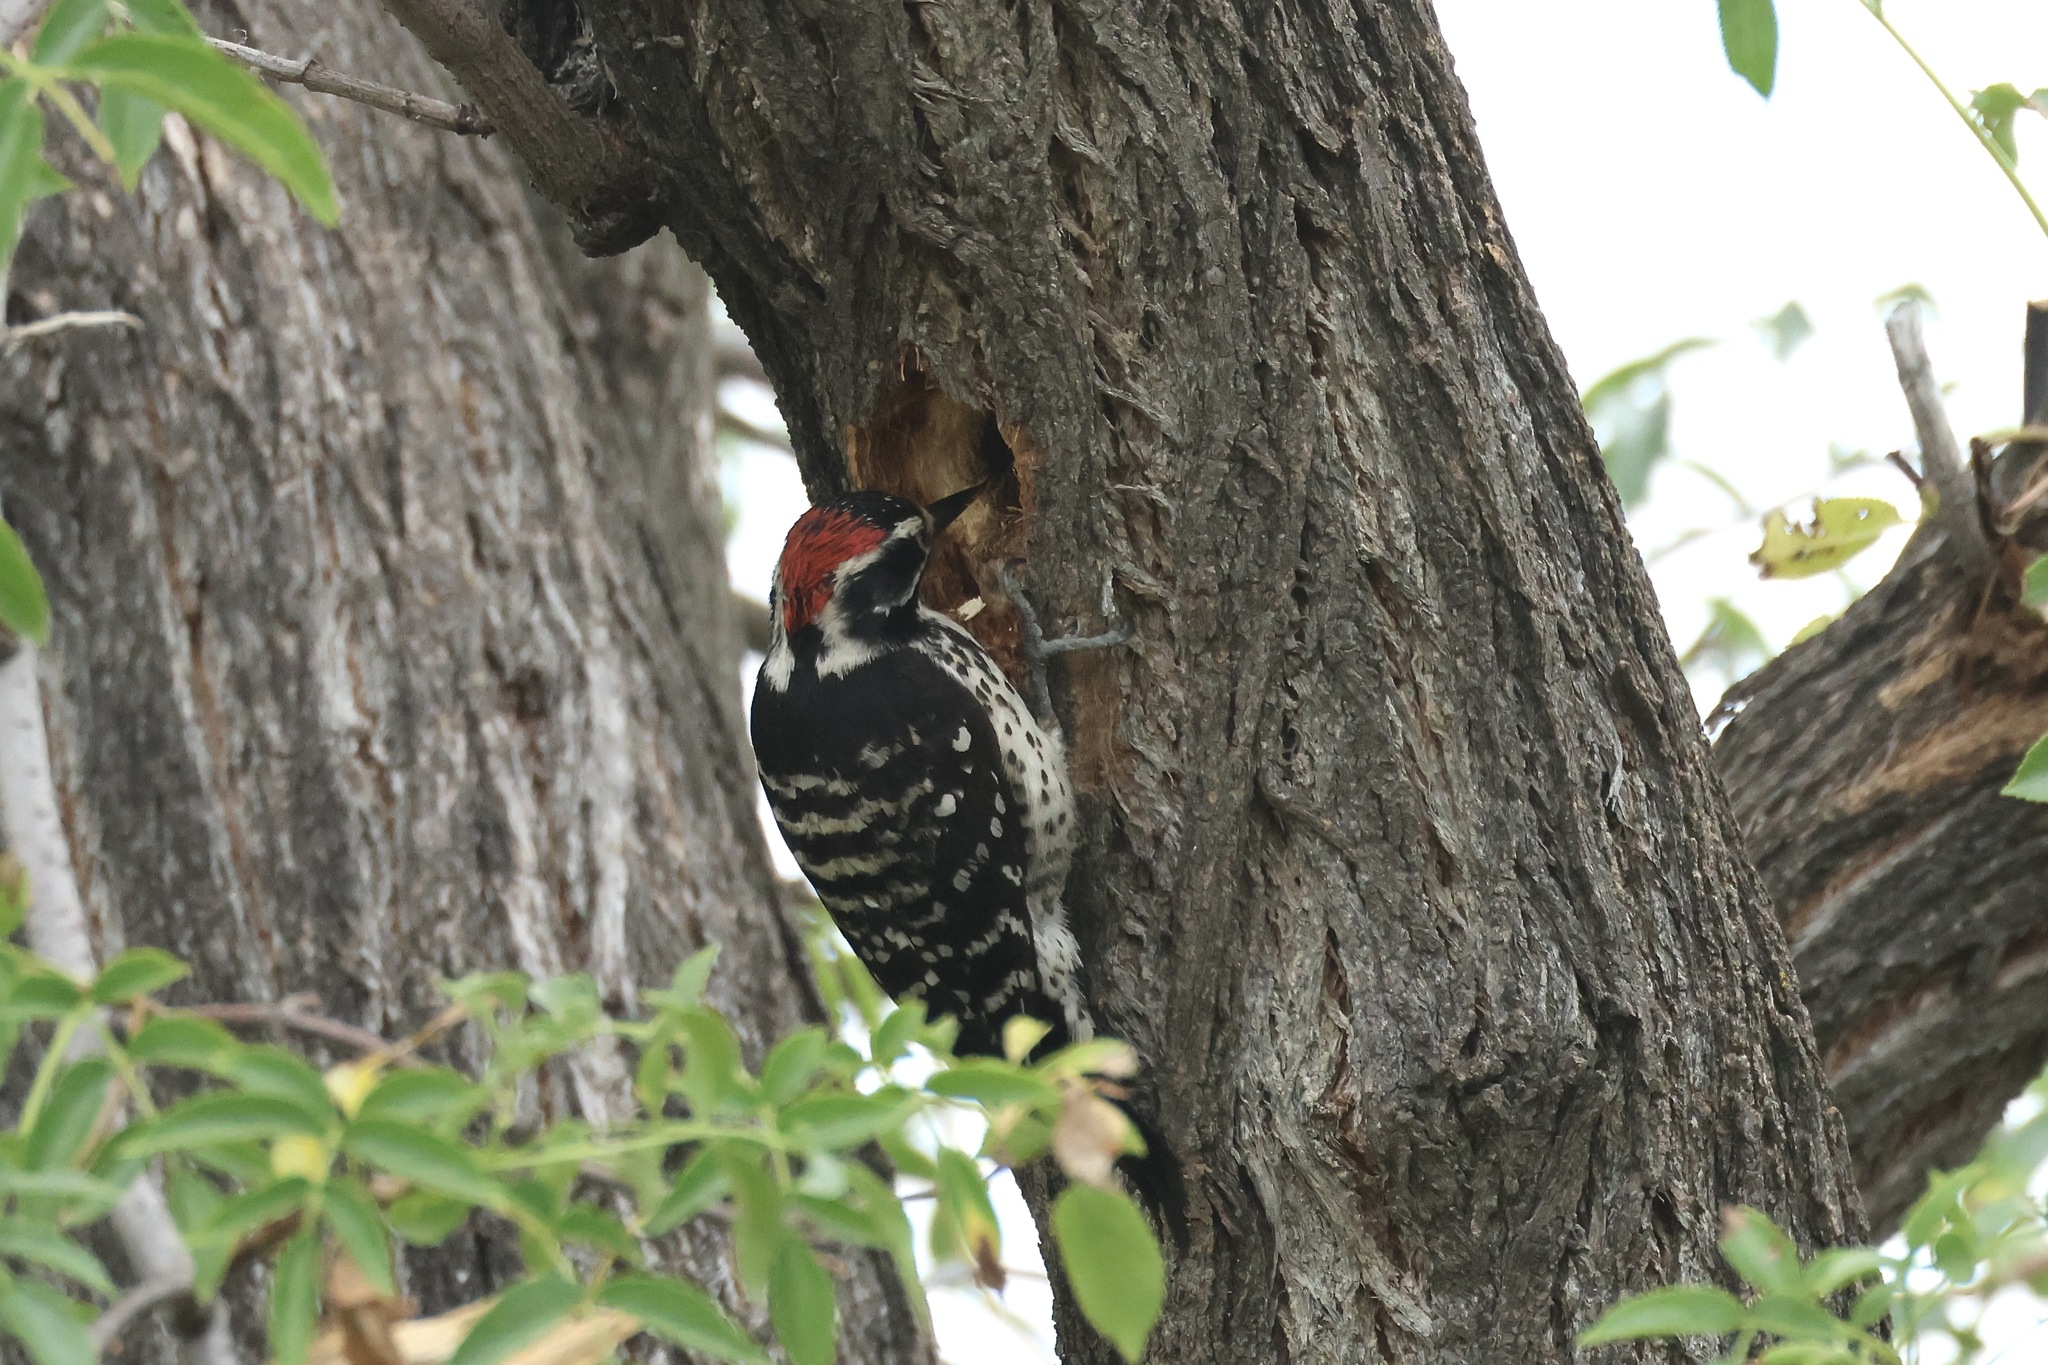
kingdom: Animalia
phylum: Chordata
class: Aves
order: Piciformes
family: Picidae
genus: Dryobates
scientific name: Dryobates nuttallii
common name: Nuttall's woodpecker
